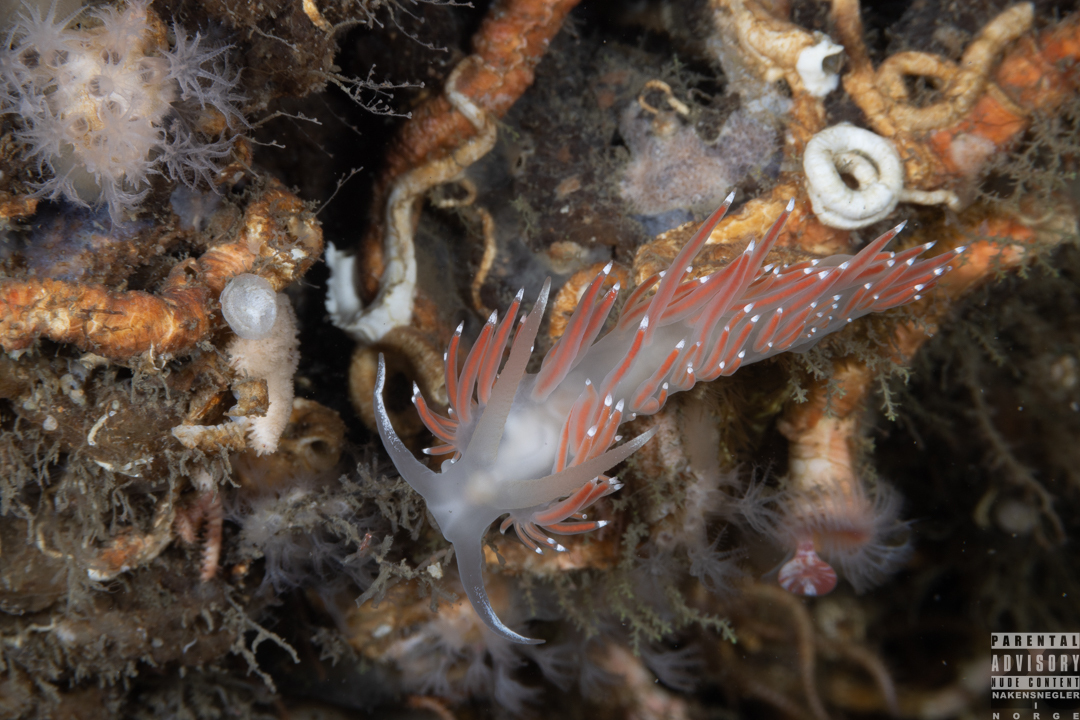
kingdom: Animalia
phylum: Mollusca
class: Gastropoda
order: Nudibranchia
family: Coryphellidae
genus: Coryphella
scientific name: Coryphella browni
